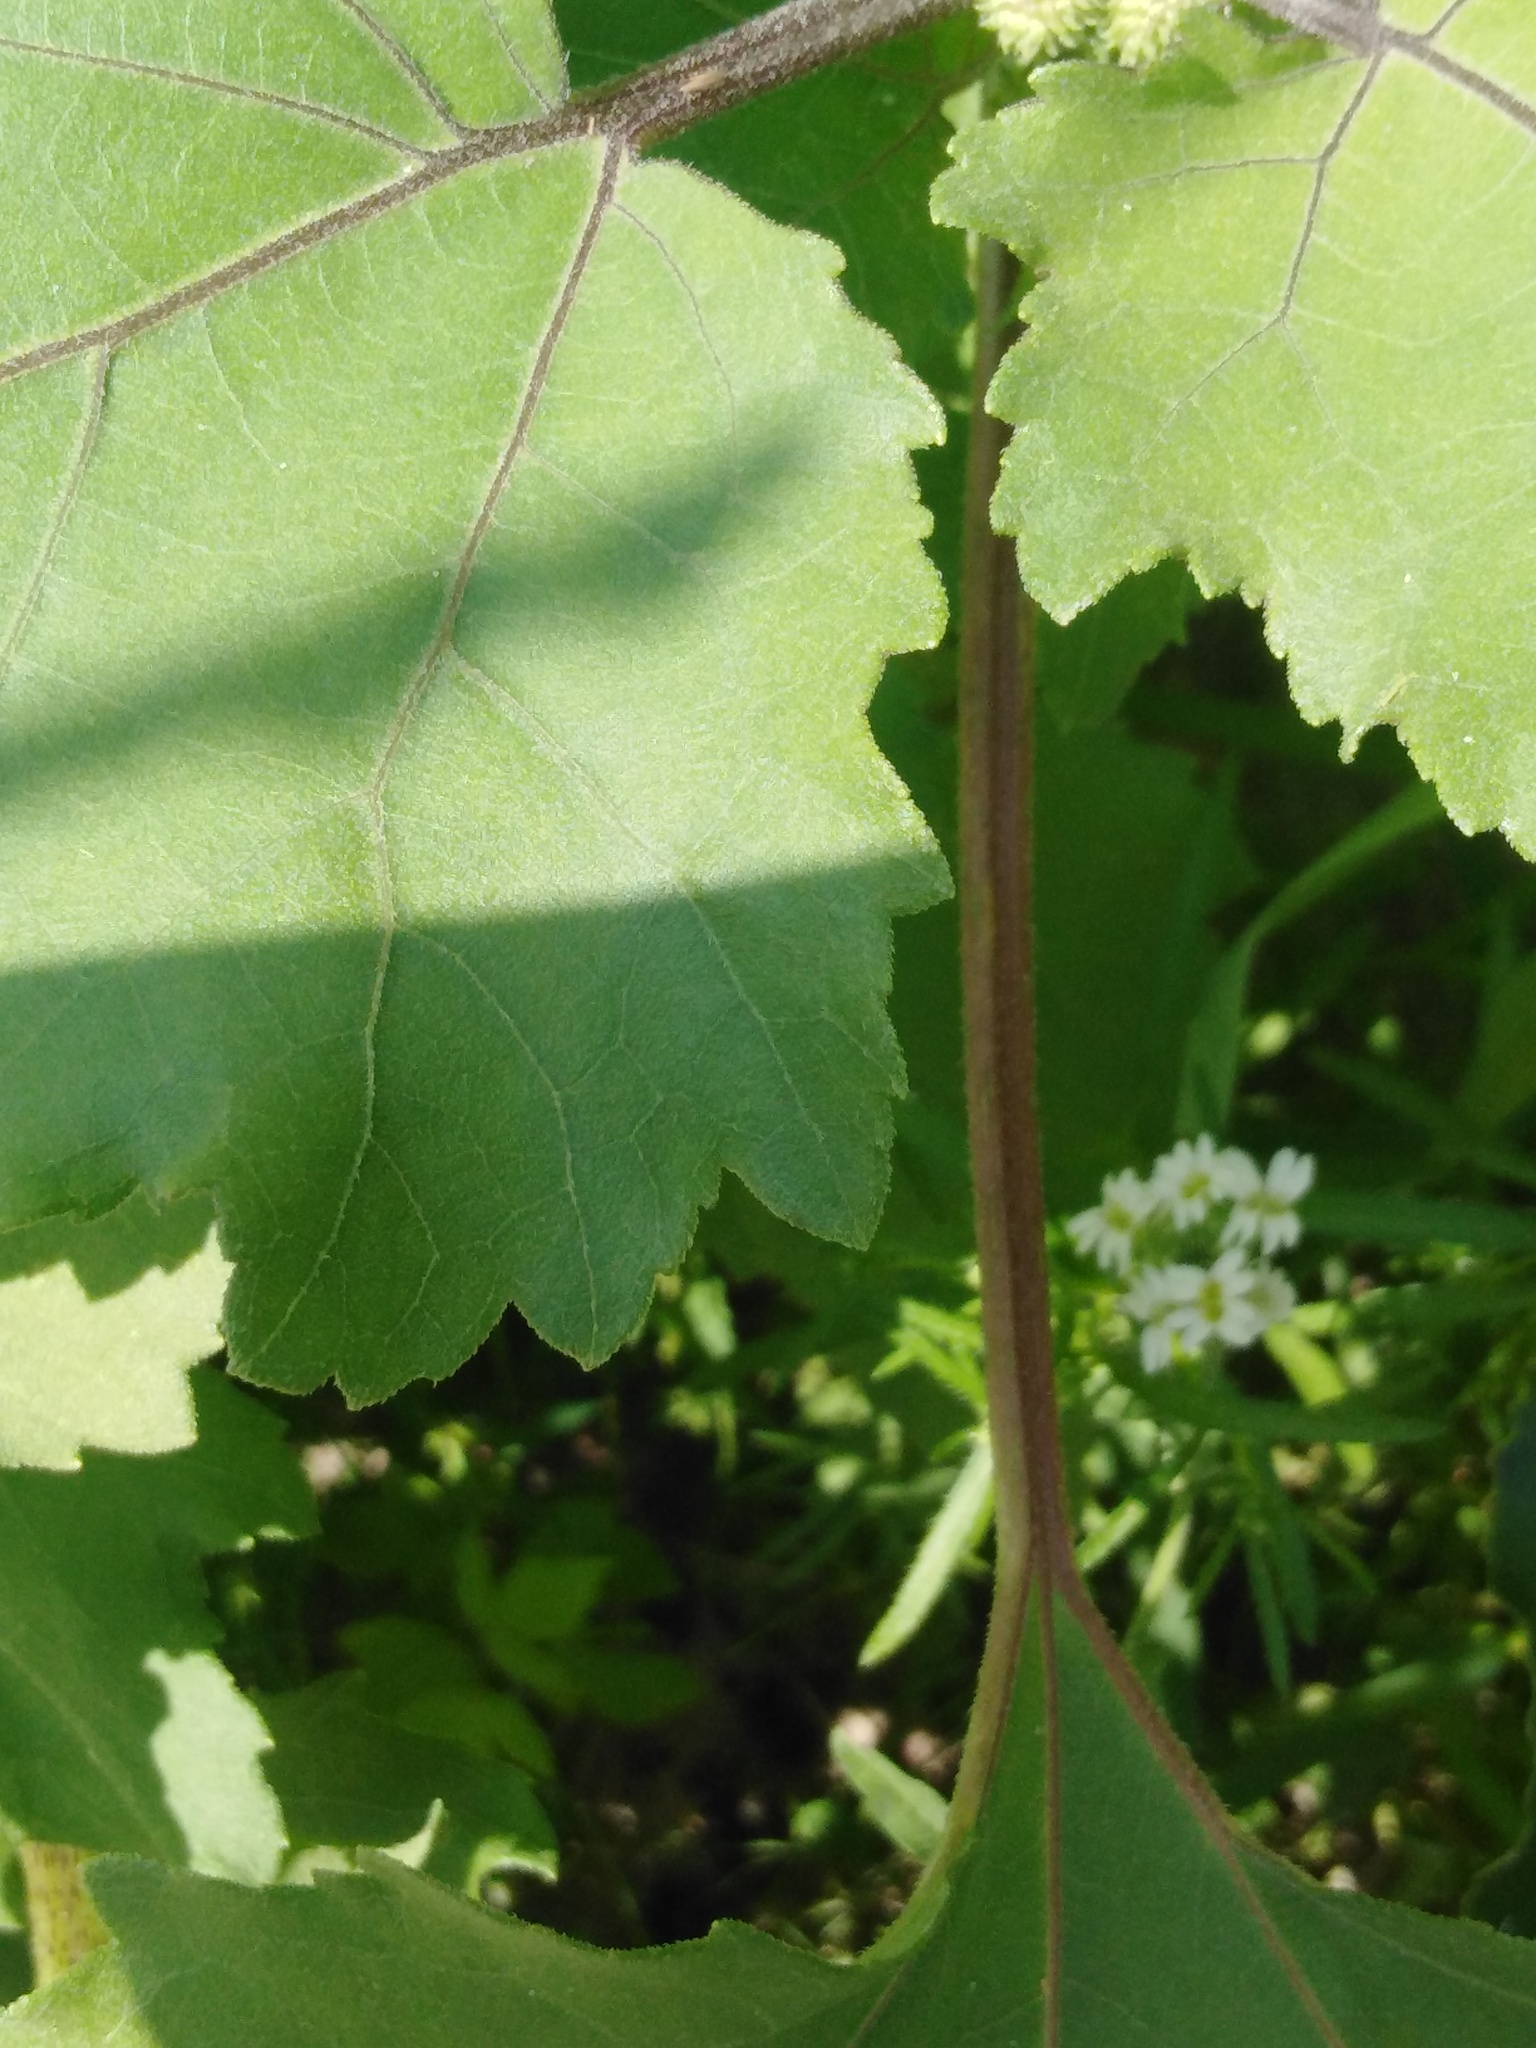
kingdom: Plantae
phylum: Tracheophyta
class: Magnoliopsida
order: Asterales
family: Asteraceae
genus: Xanthium
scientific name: Xanthium orientale
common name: Californian burr
